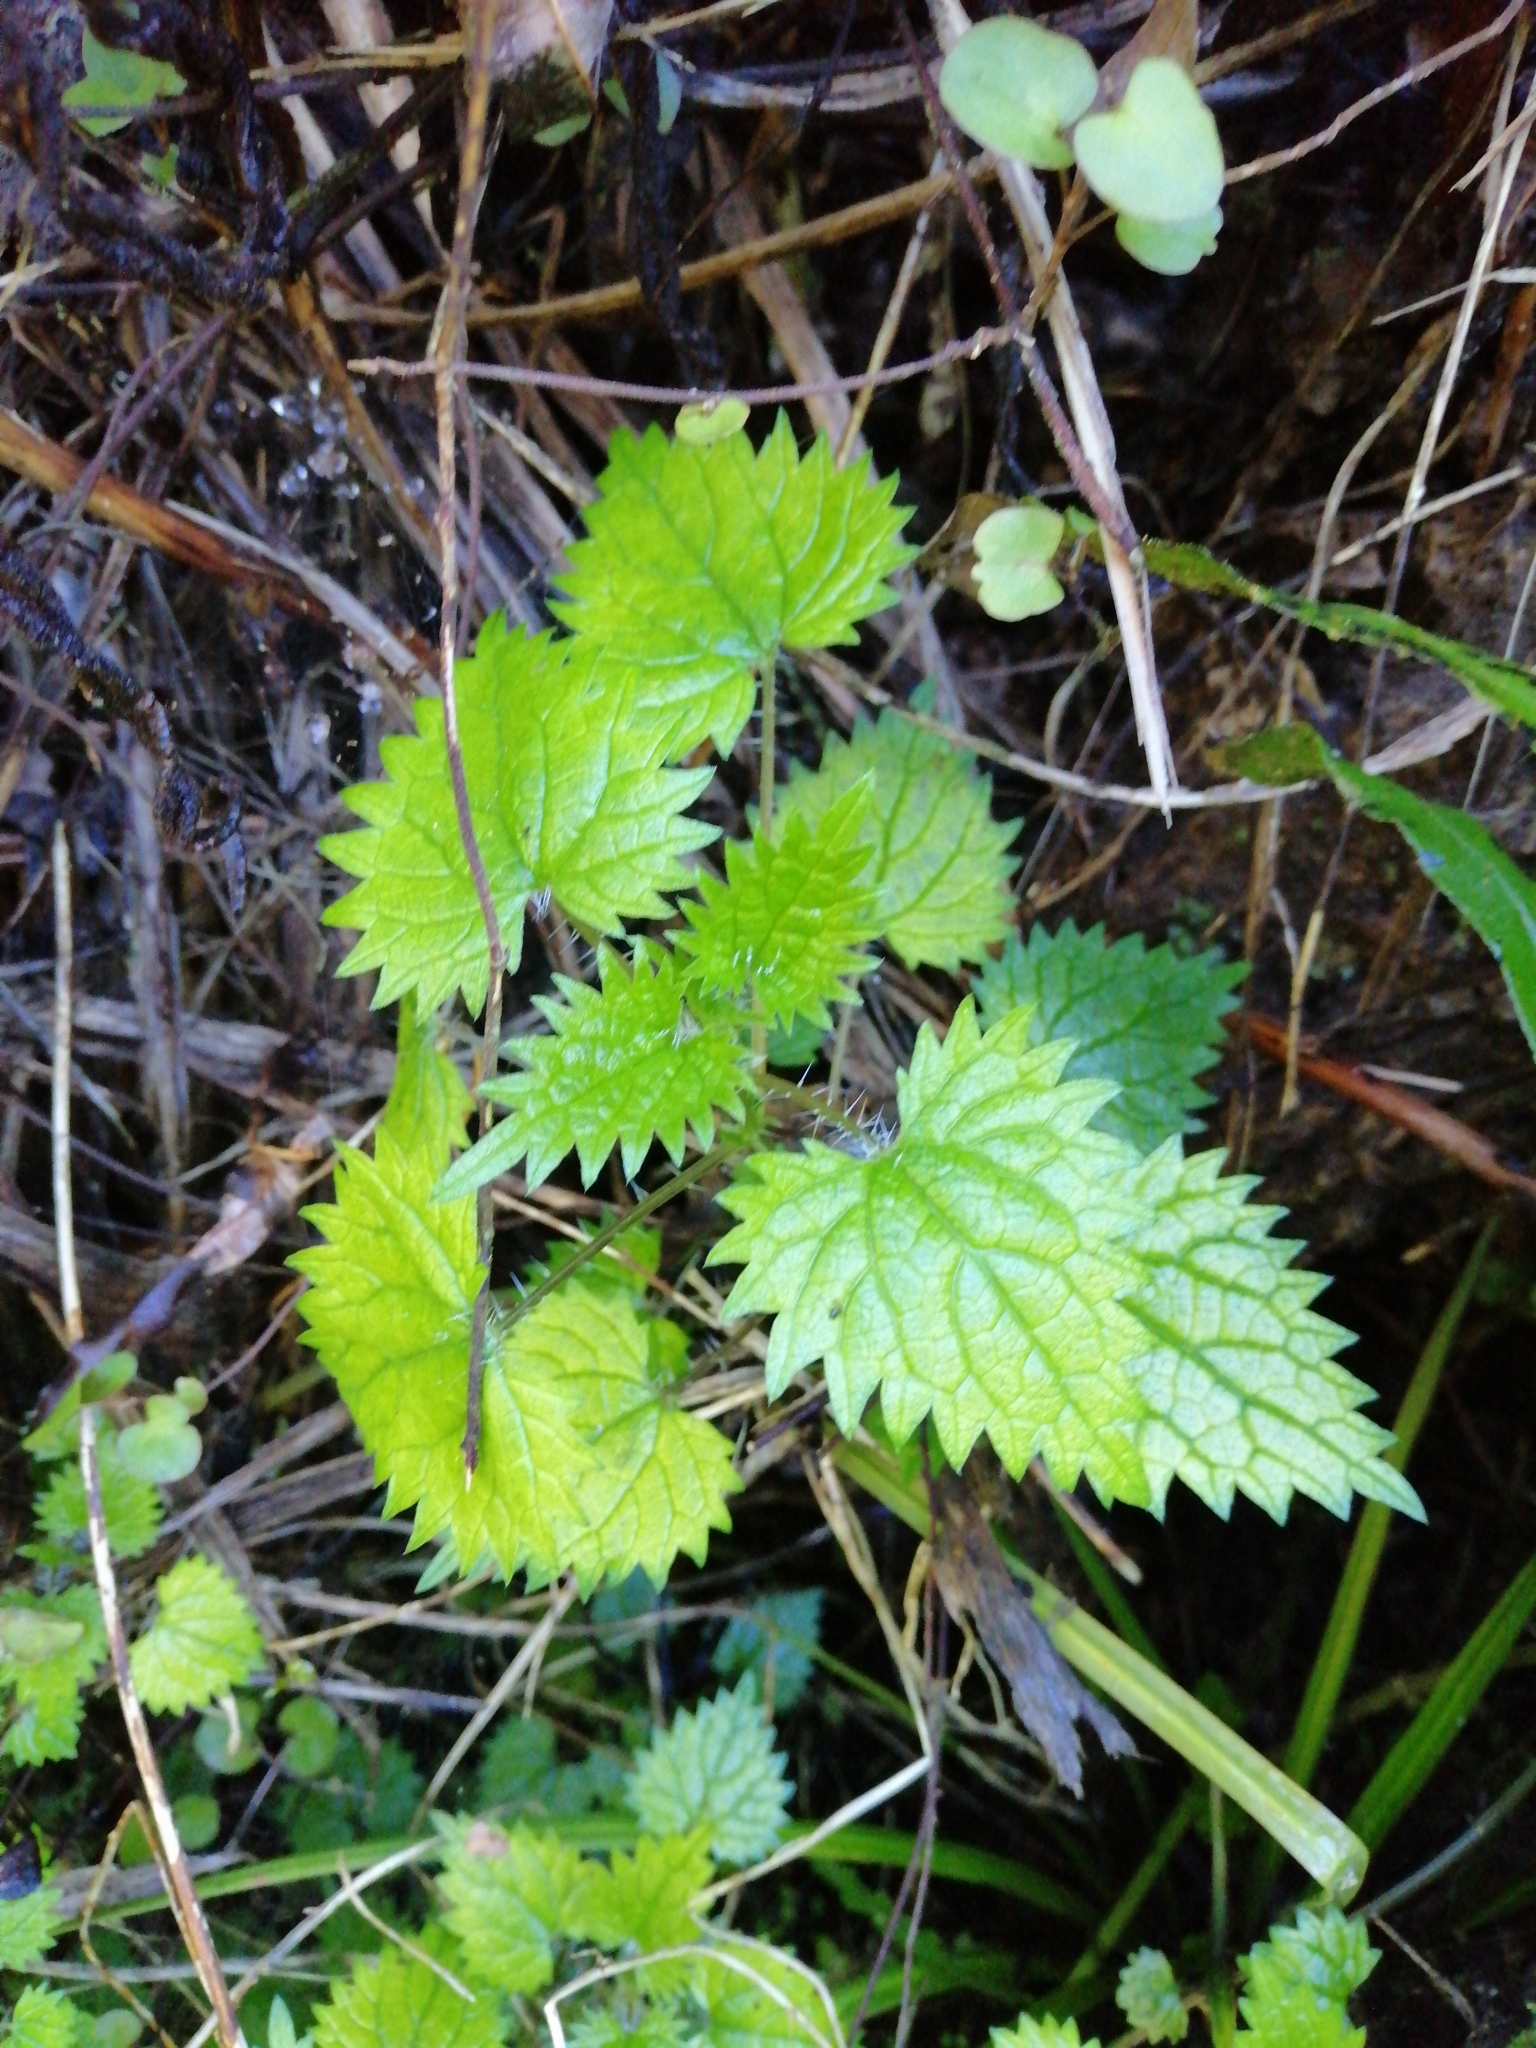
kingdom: Plantae
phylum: Tracheophyta
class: Magnoliopsida
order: Rosales
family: Urticaceae
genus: Urtica
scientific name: Urtica sykesii
